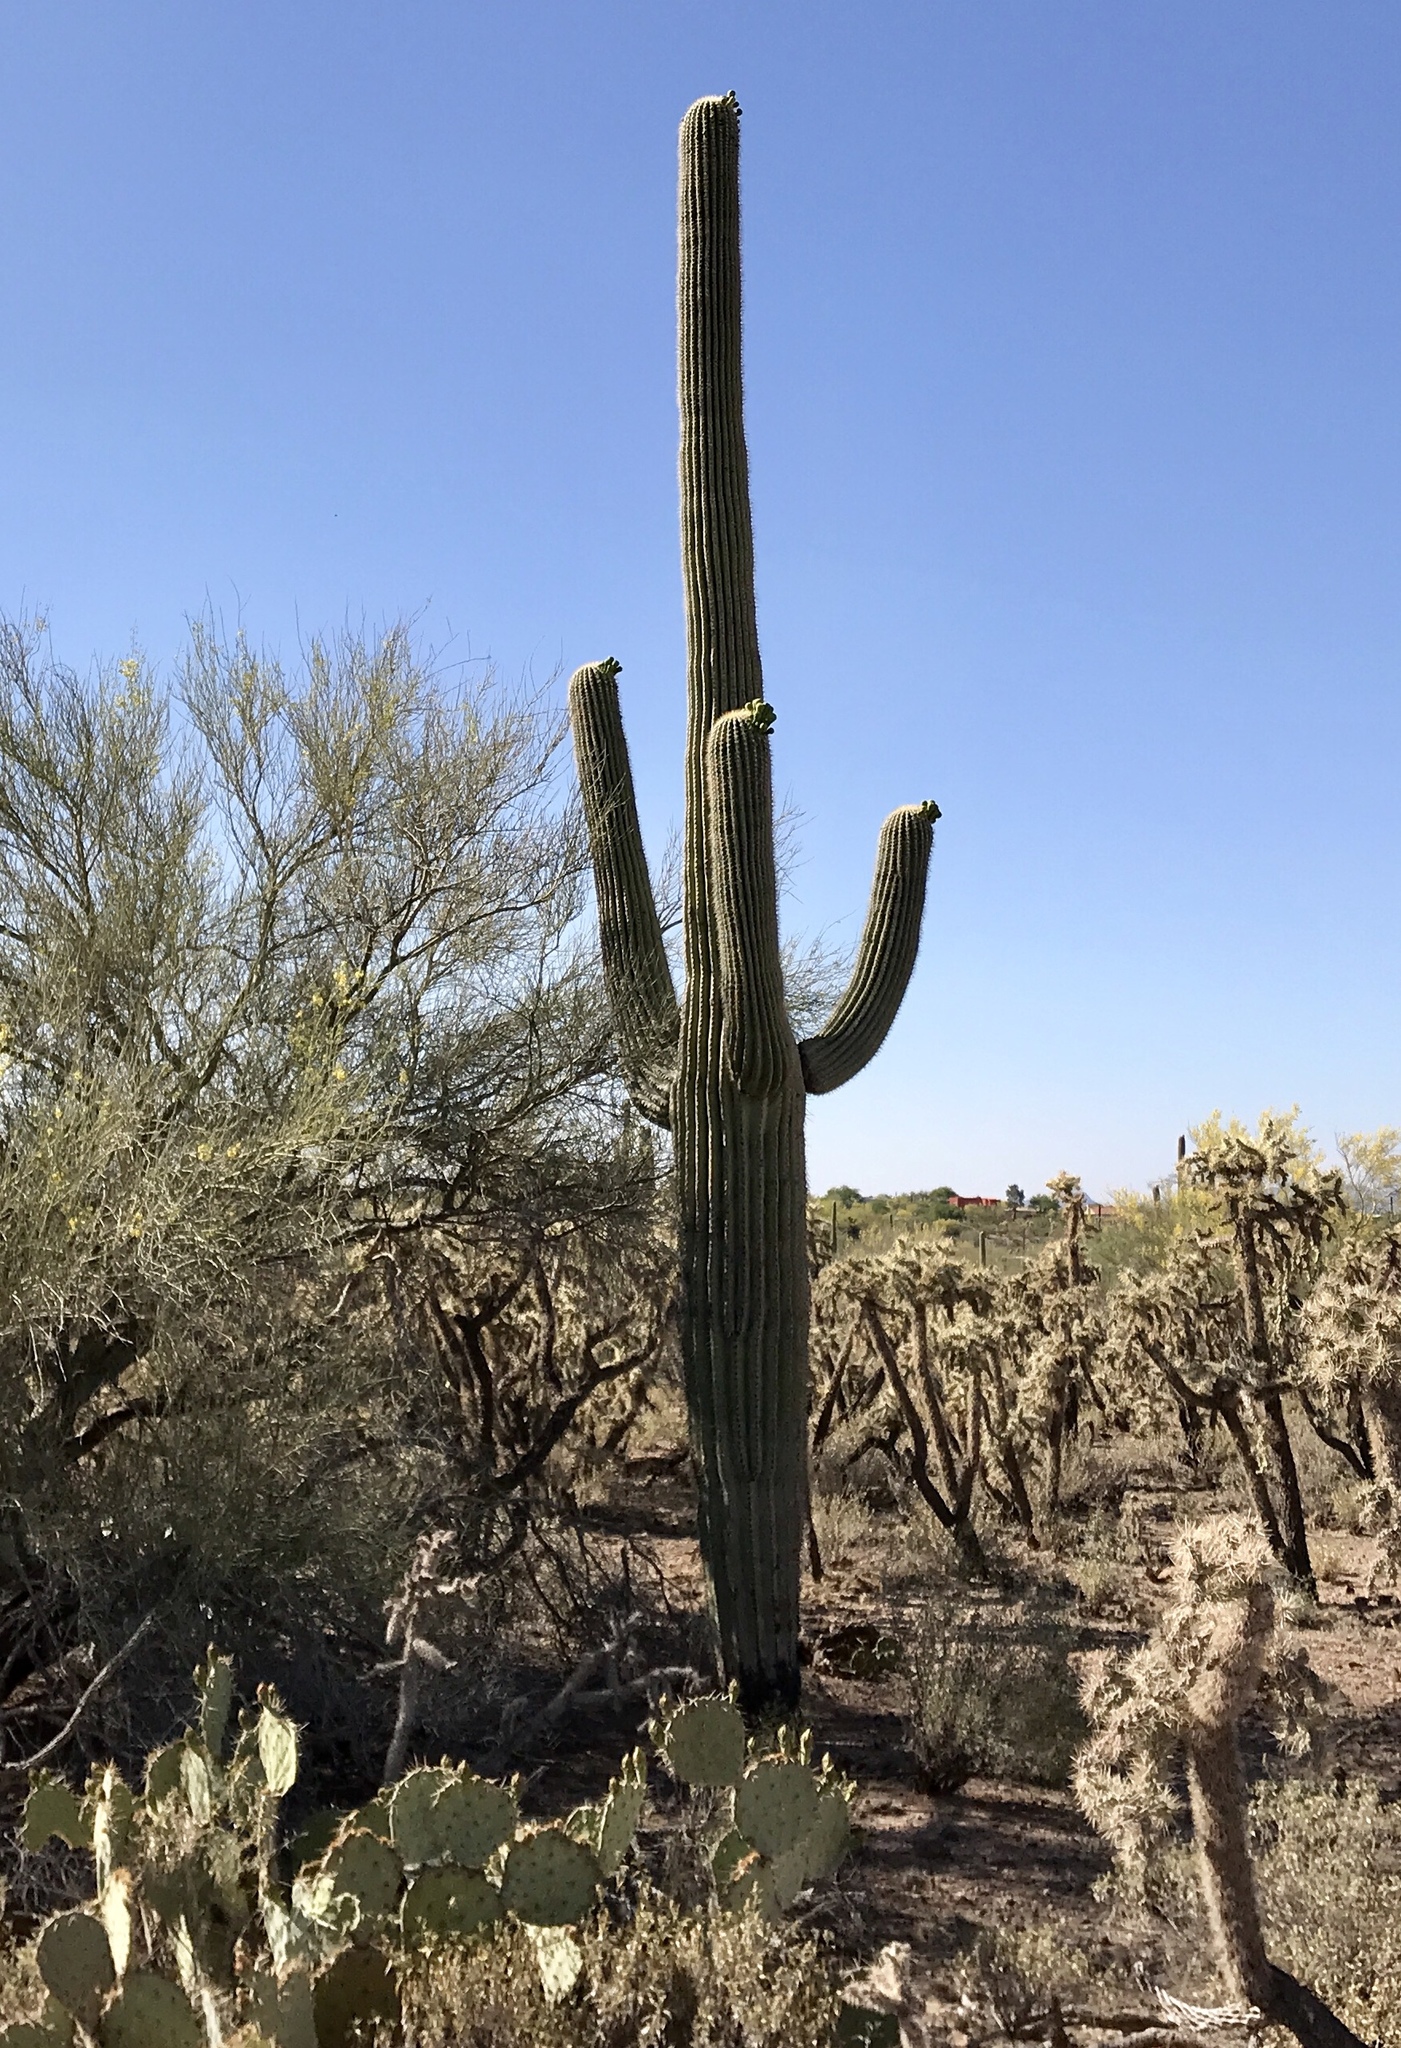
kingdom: Plantae
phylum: Tracheophyta
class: Magnoliopsida
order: Caryophyllales
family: Cactaceae
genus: Carnegiea
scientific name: Carnegiea gigantea
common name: Saguaro
